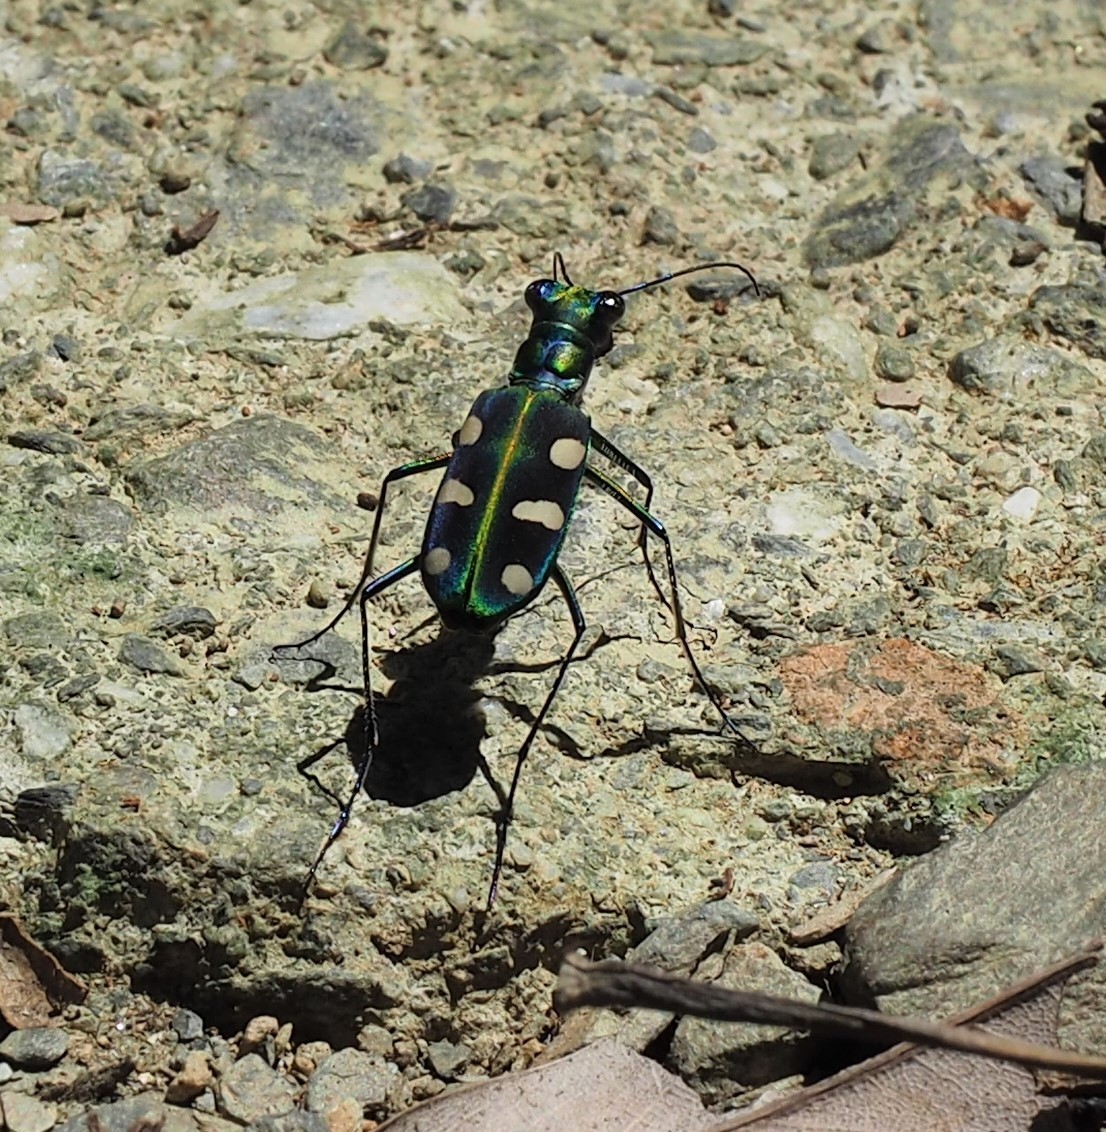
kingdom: Animalia
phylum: Arthropoda
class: Insecta
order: Coleoptera
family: Carabidae
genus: Cicindela
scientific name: Cicindela batesi
